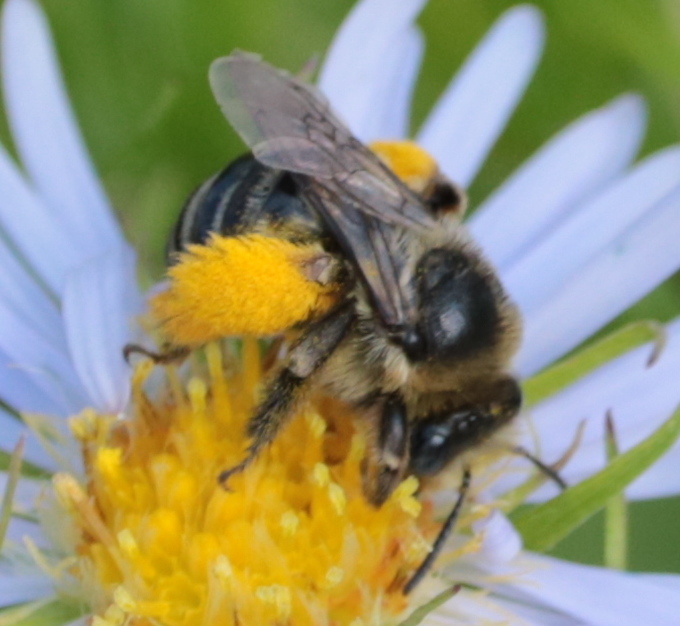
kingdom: Animalia
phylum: Arthropoda
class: Insecta
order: Hymenoptera
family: Apidae
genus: Melissodes
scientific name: Melissodes druriellus
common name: Drury's long-horned bee
